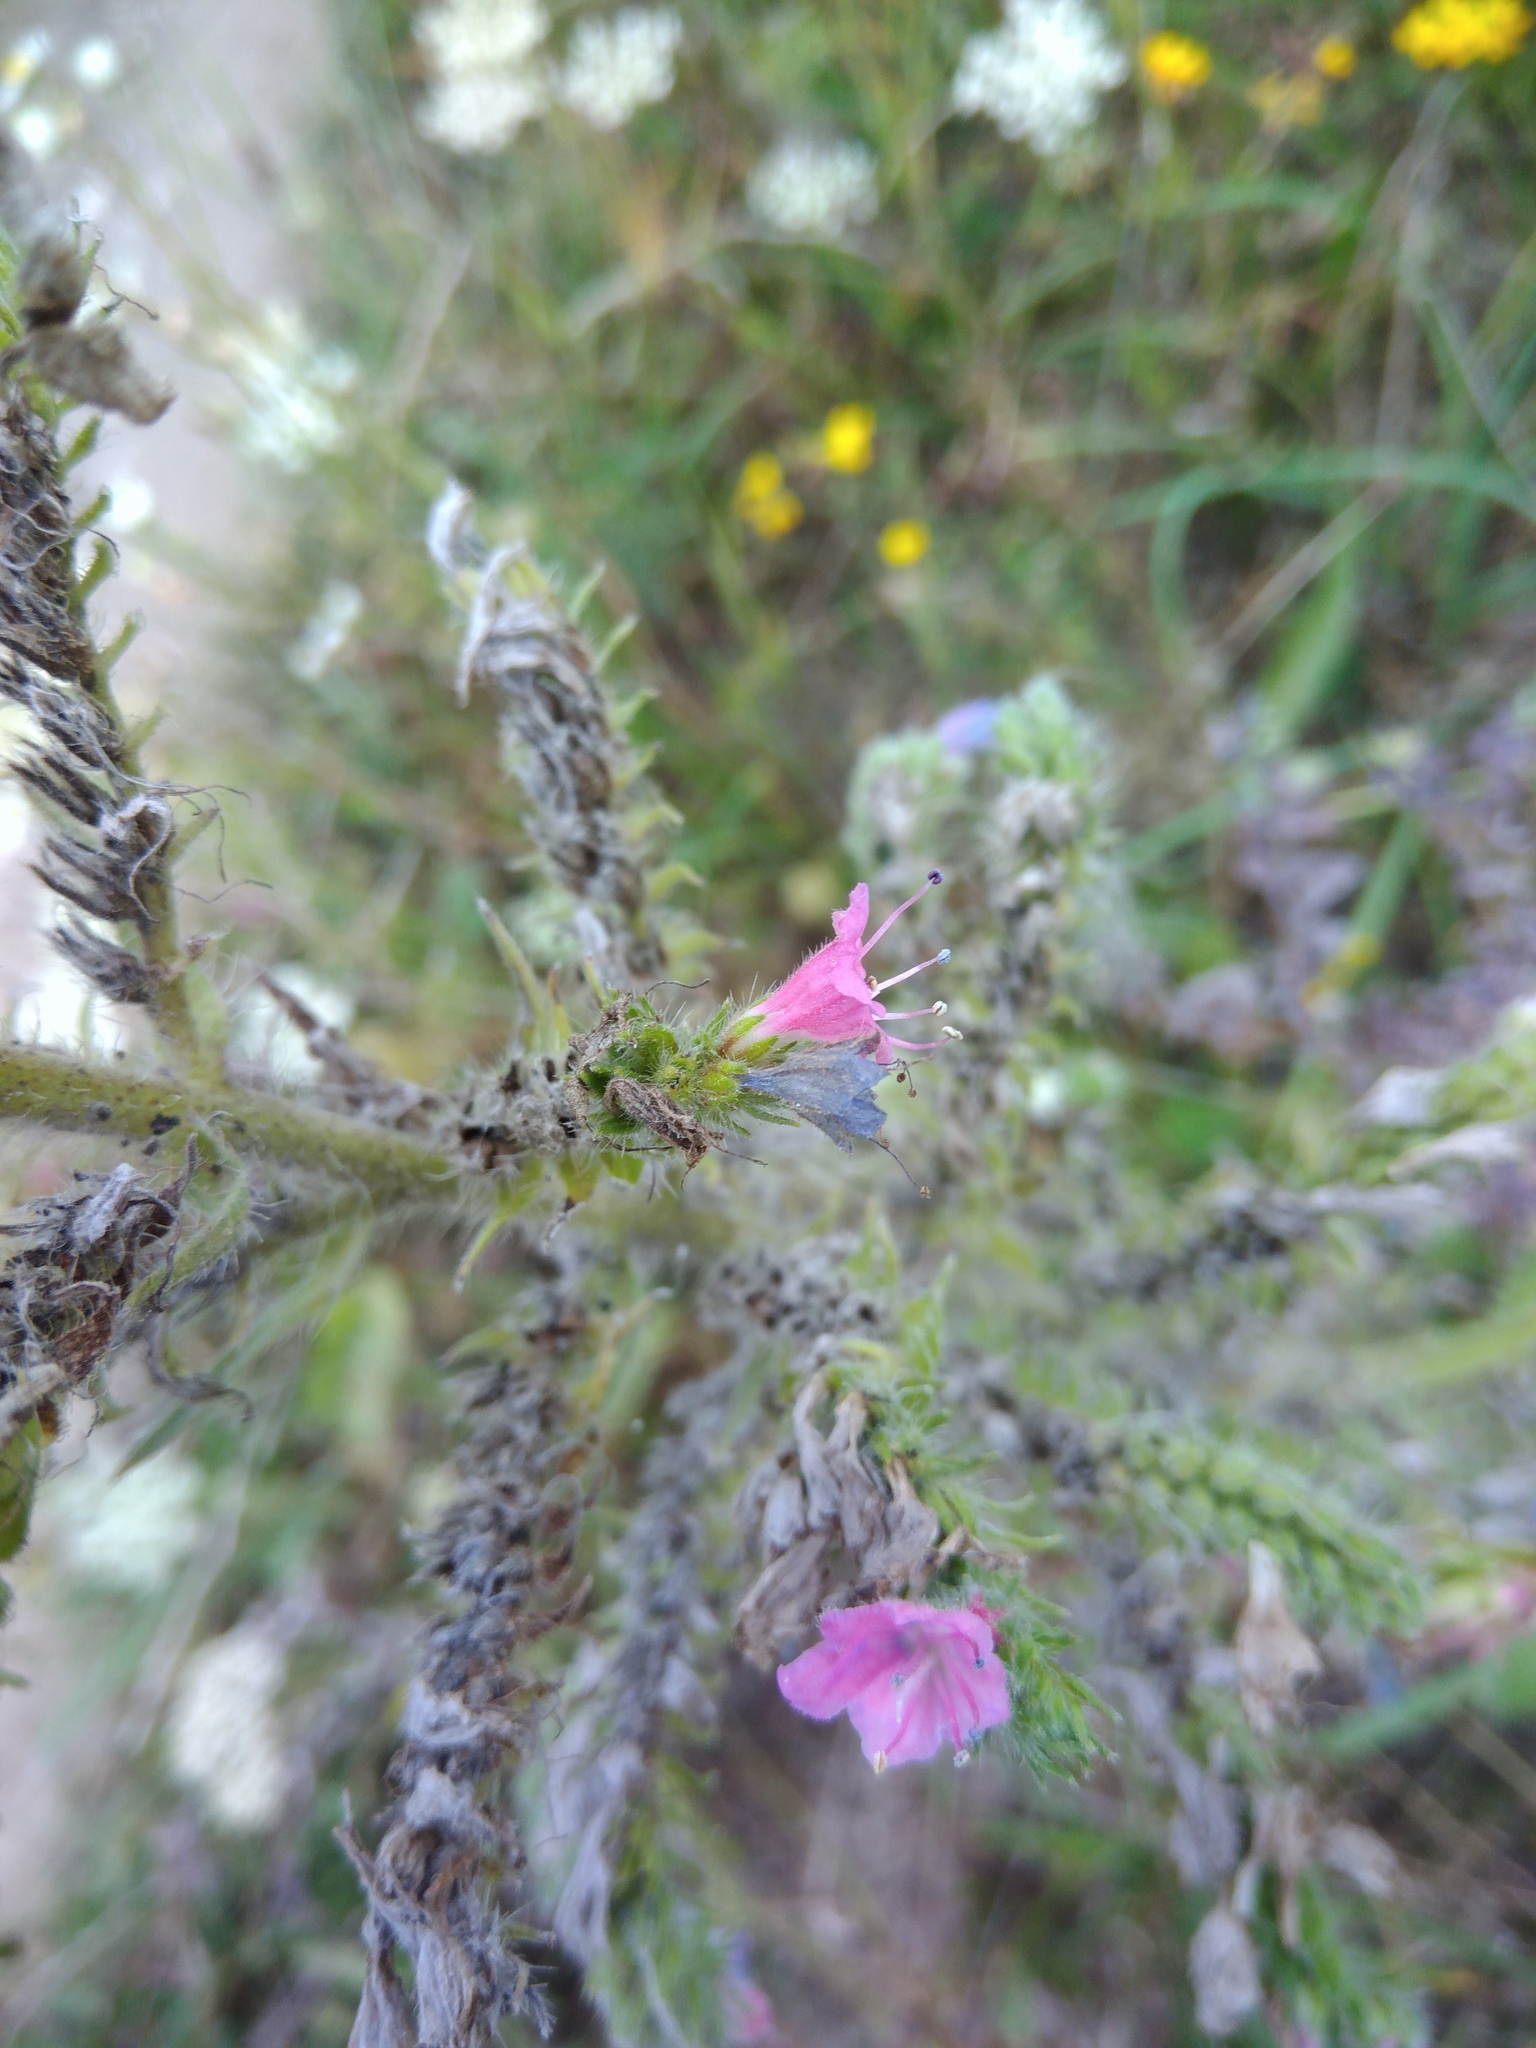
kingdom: Plantae
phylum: Tracheophyta
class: Magnoliopsida
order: Boraginales
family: Boraginaceae
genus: Echium
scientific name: Echium vulgare
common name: Common viper's bugloss
